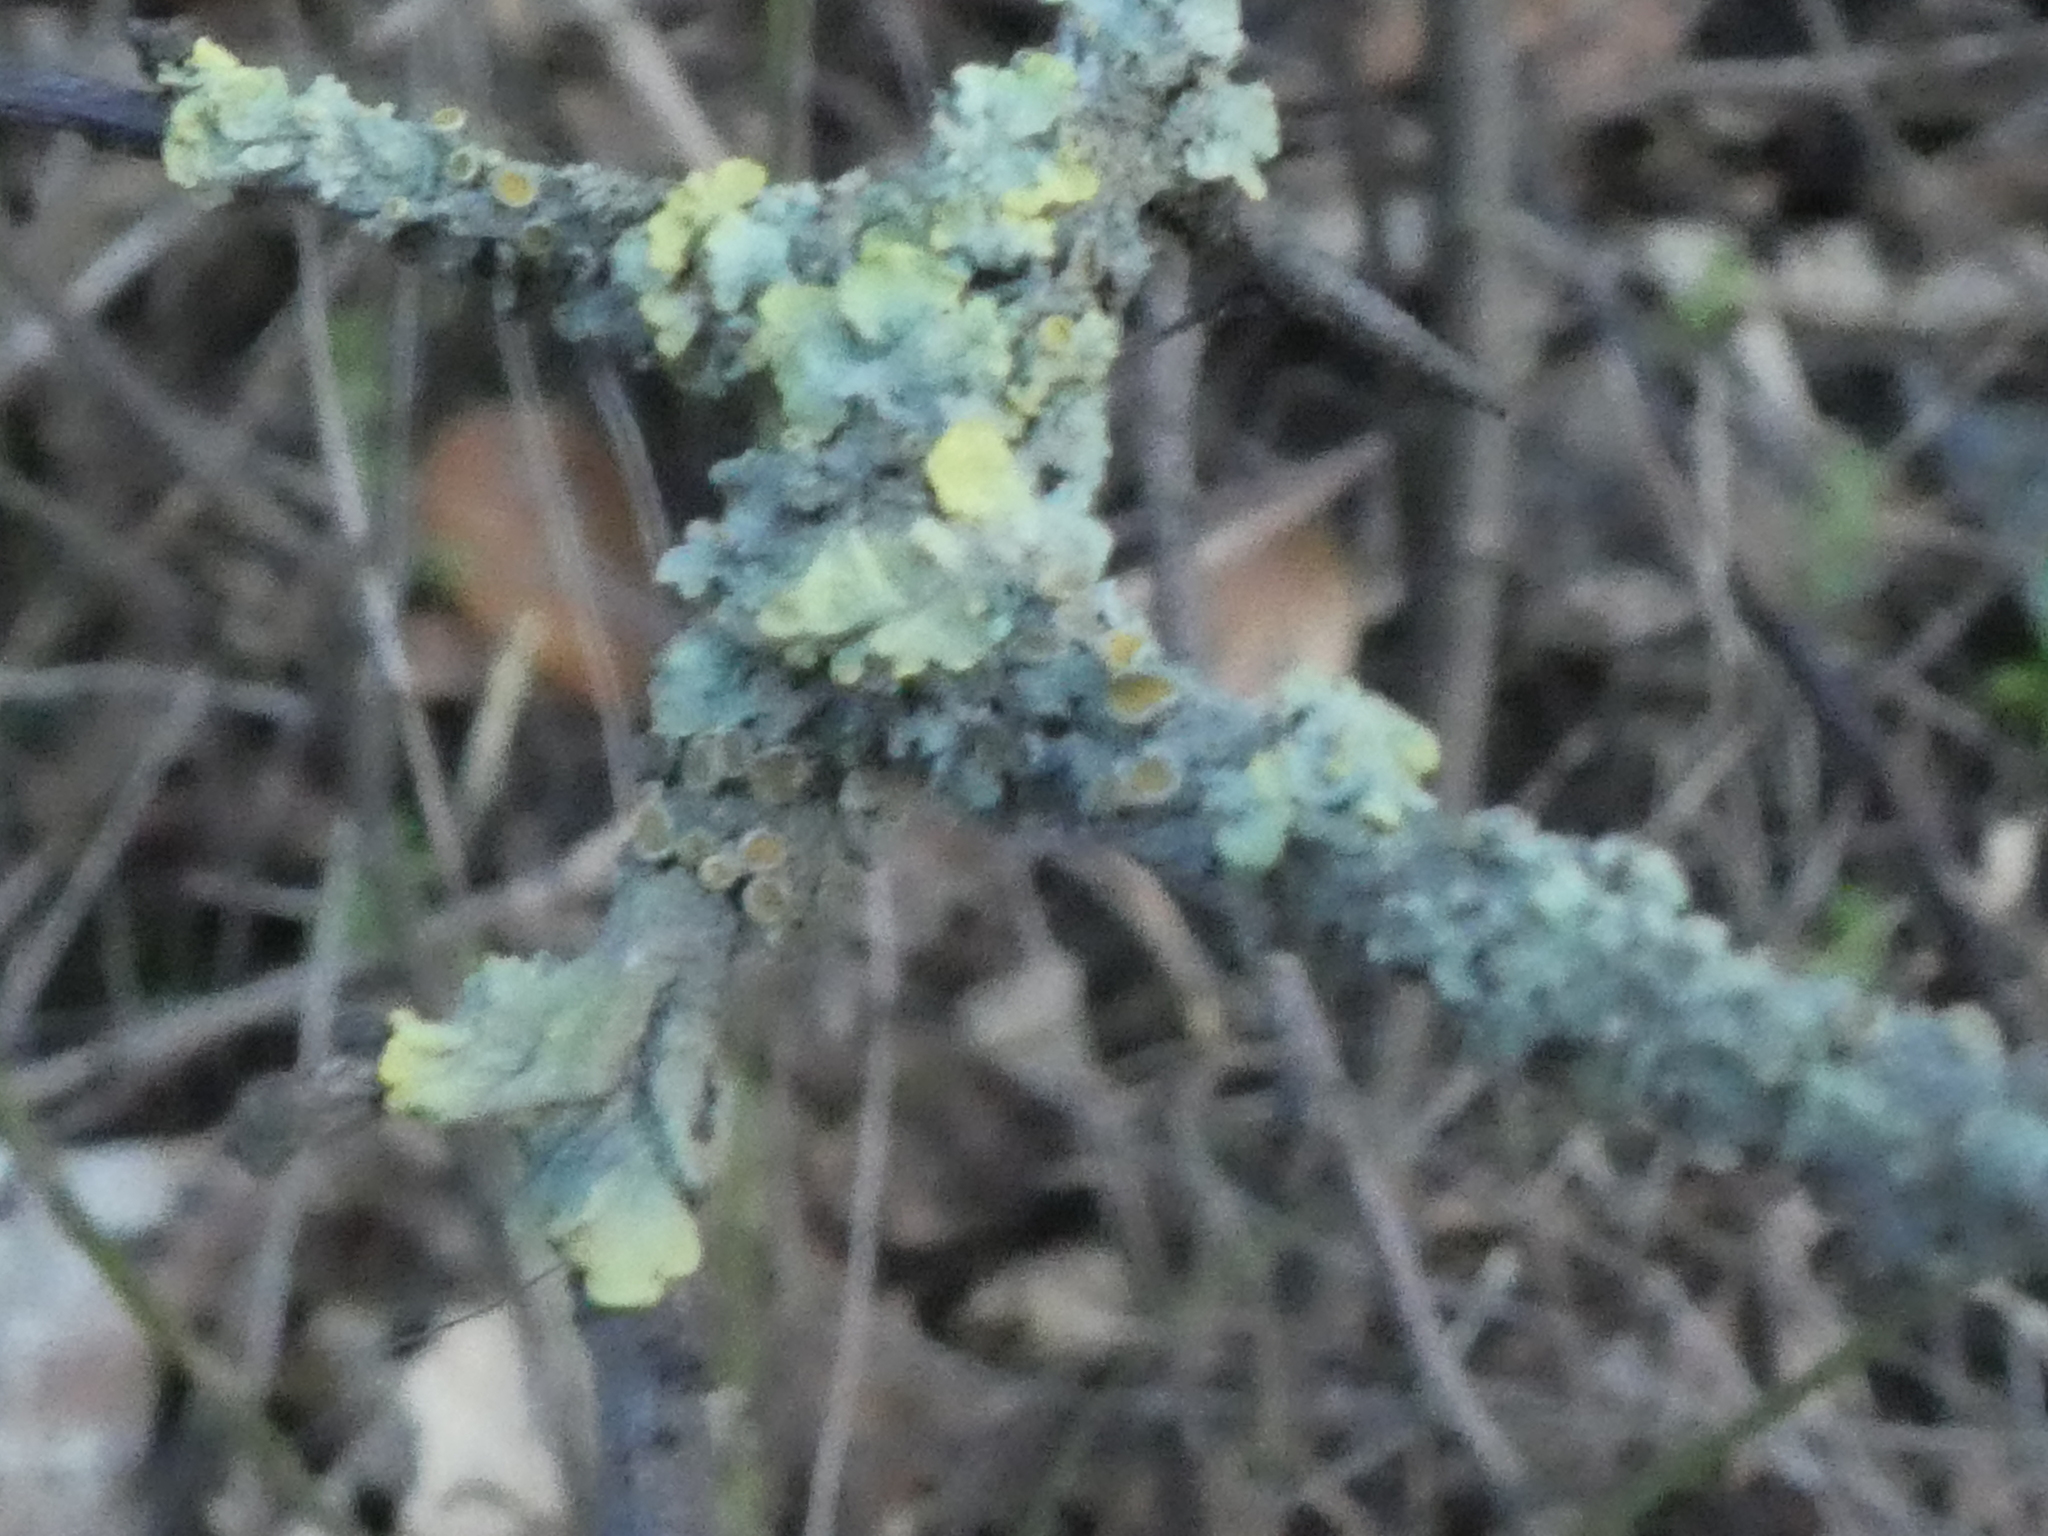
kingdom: Fungi
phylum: Ascomycota
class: Lecanoromycetes
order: Teloschistales
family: Teloschistaceae
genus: Xanthoria
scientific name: Xanthoria parietina
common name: Common orange lichen
